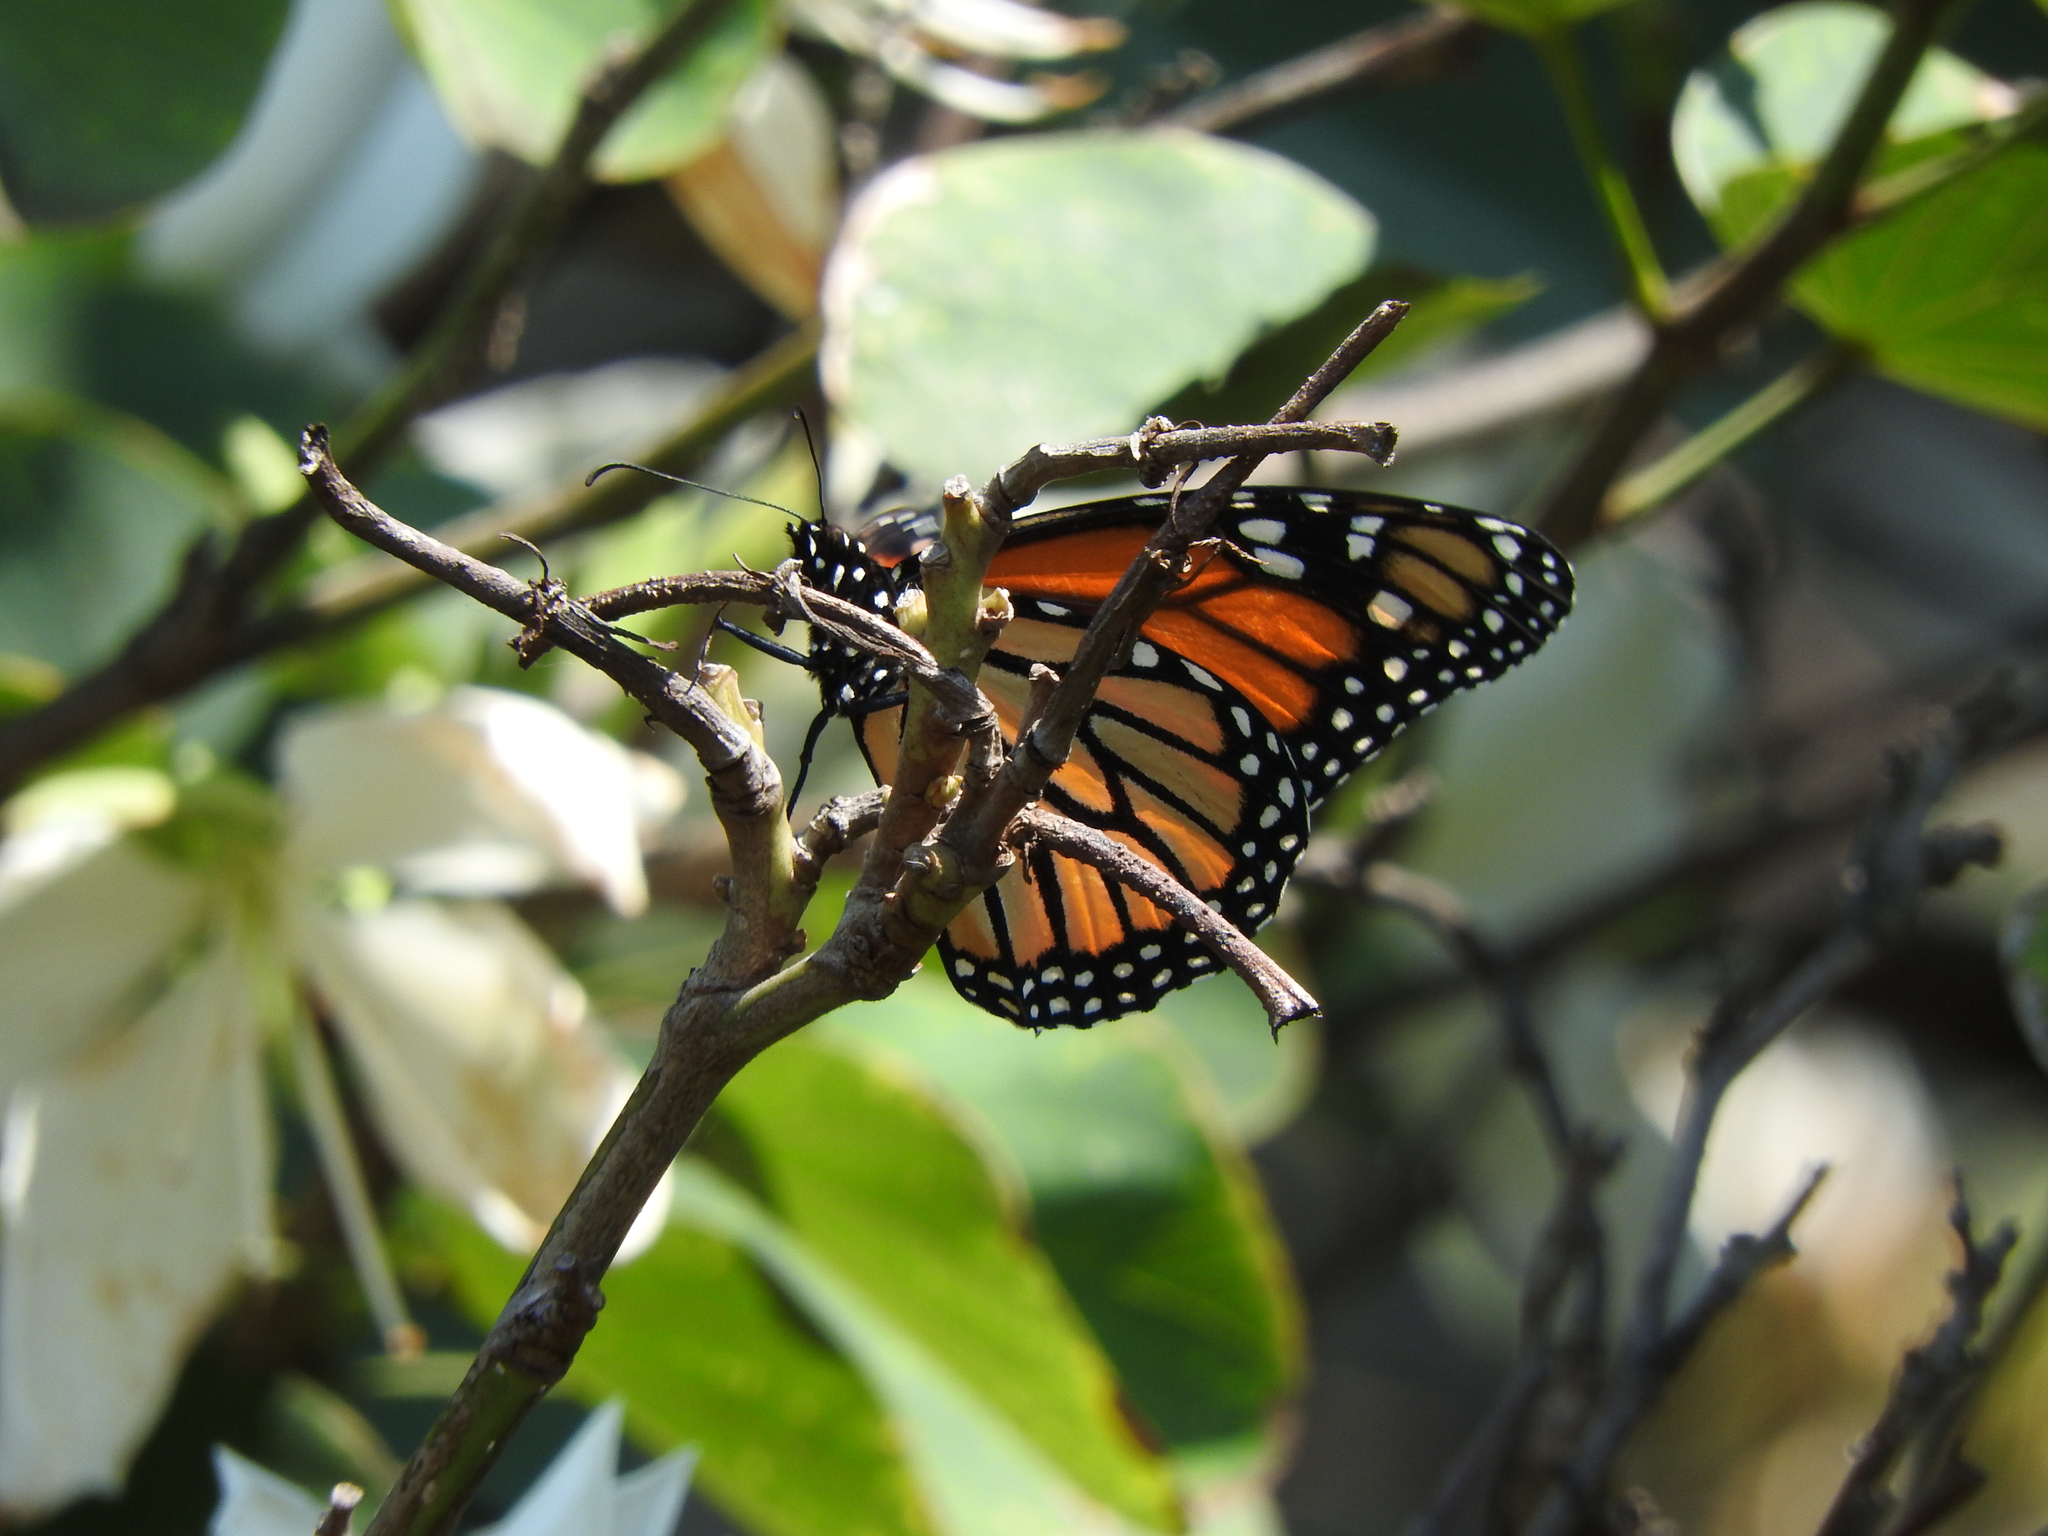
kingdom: Animalia
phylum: Arthropoda
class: Insecta
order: Lepidoptera
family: Nymphalidae
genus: Danaus
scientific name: Danaus plexippus
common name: Monarch
